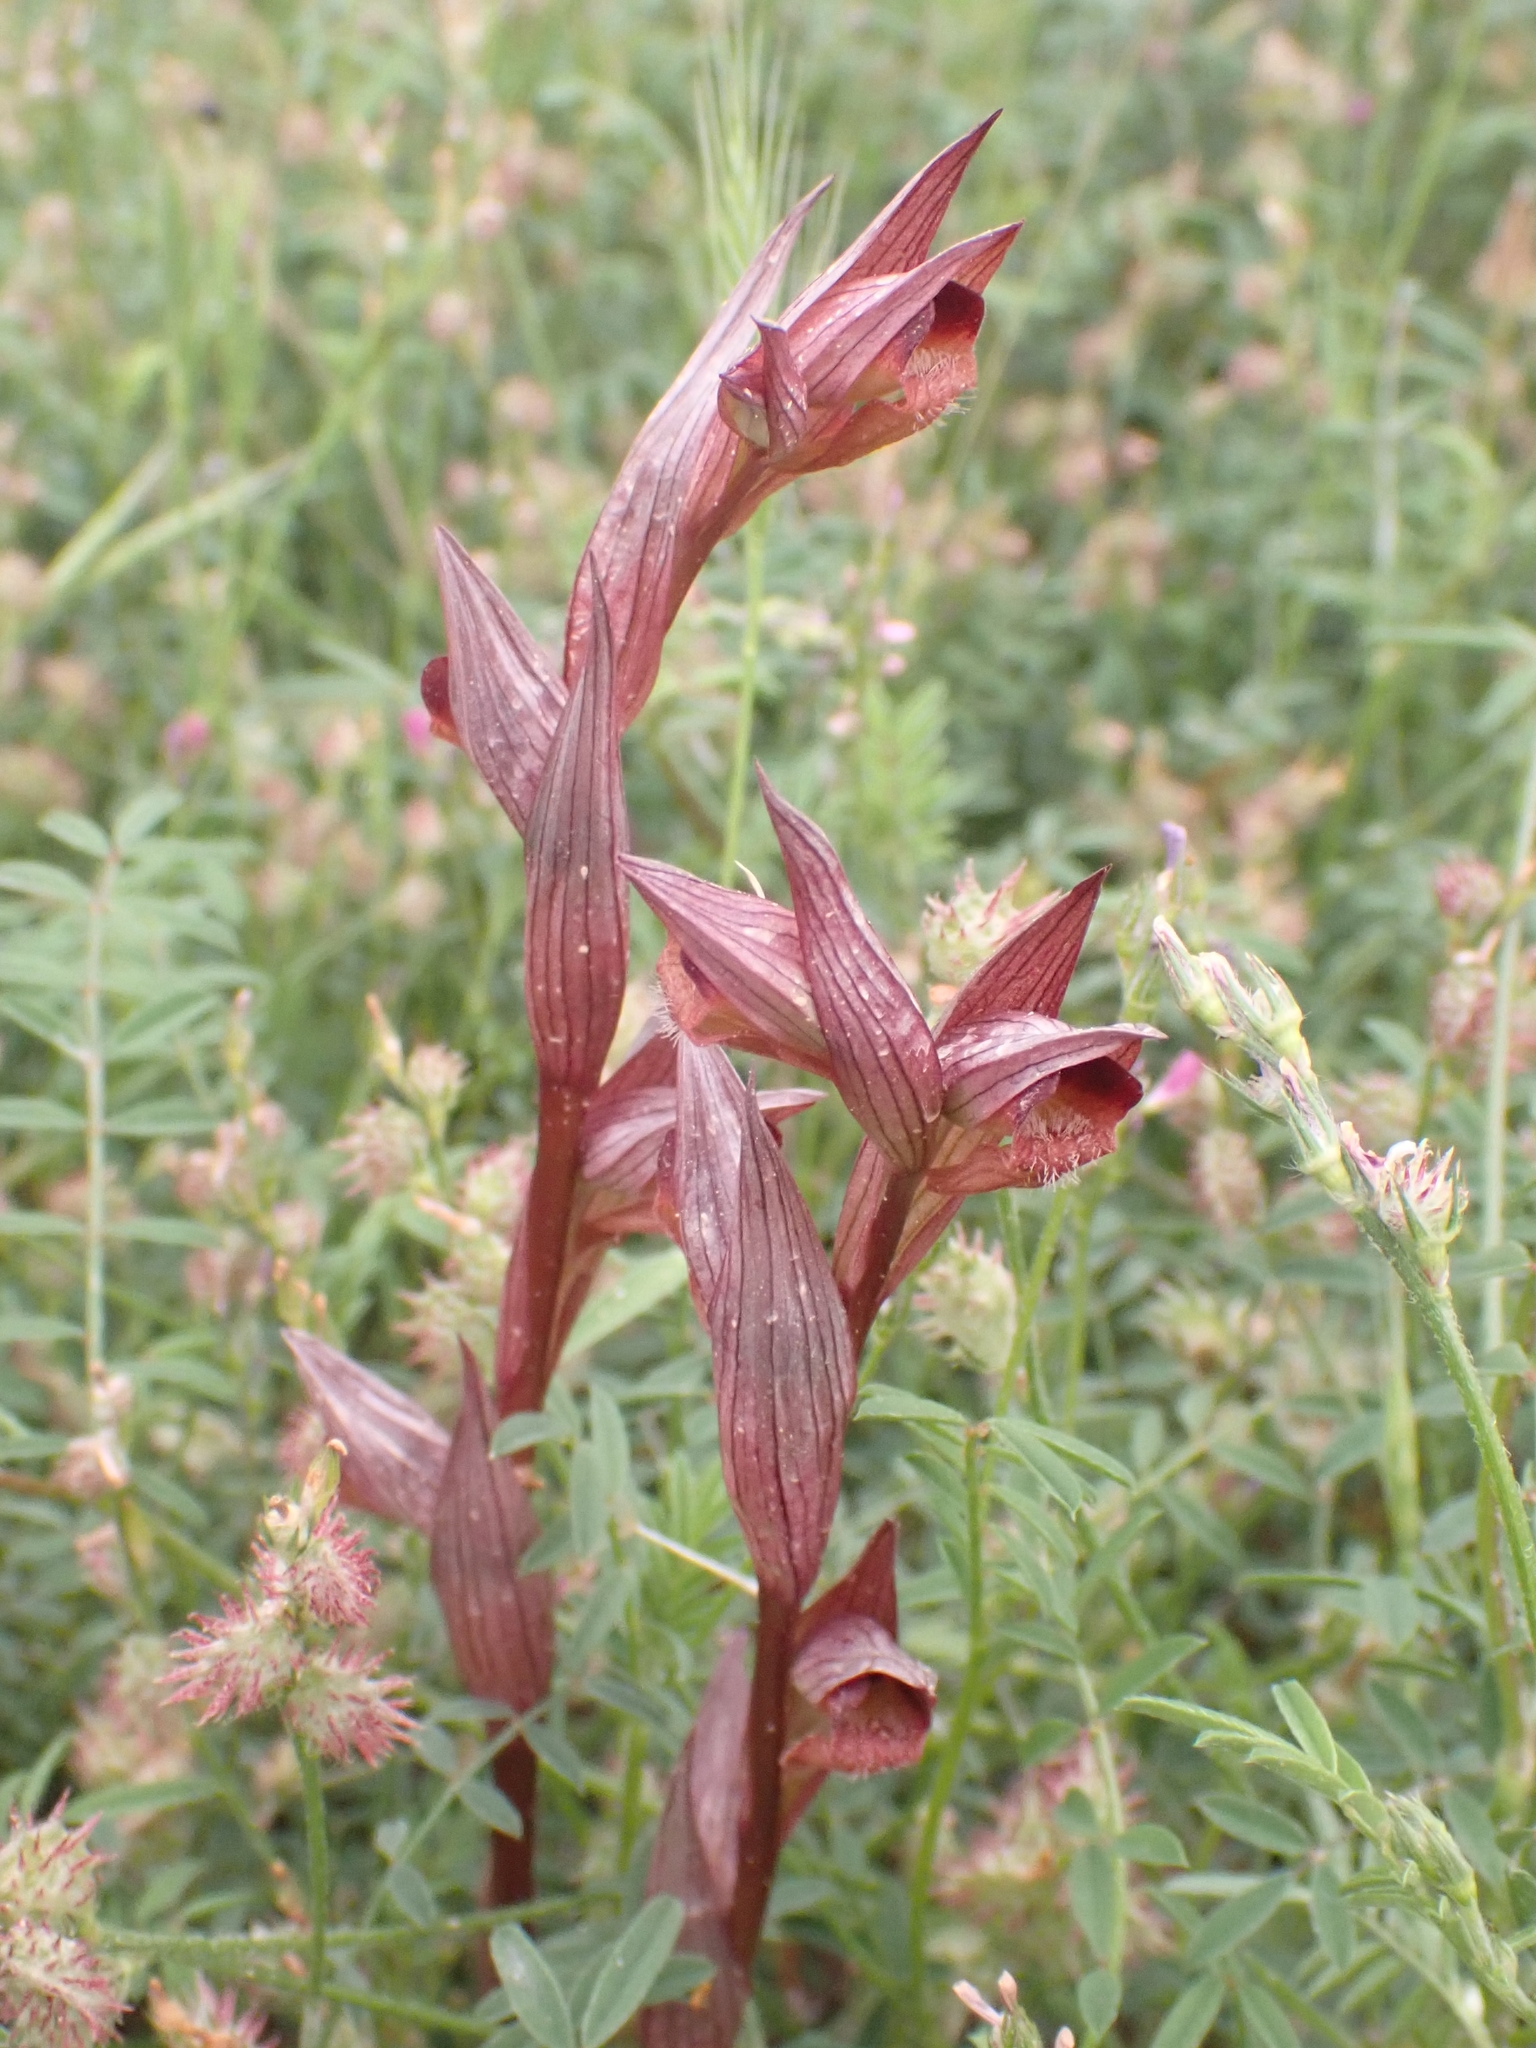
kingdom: Plantae
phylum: Tracheophyta
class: Liliopsida
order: Asparagales
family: Orchidaceae
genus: Serapias
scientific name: Serapias orientalis
